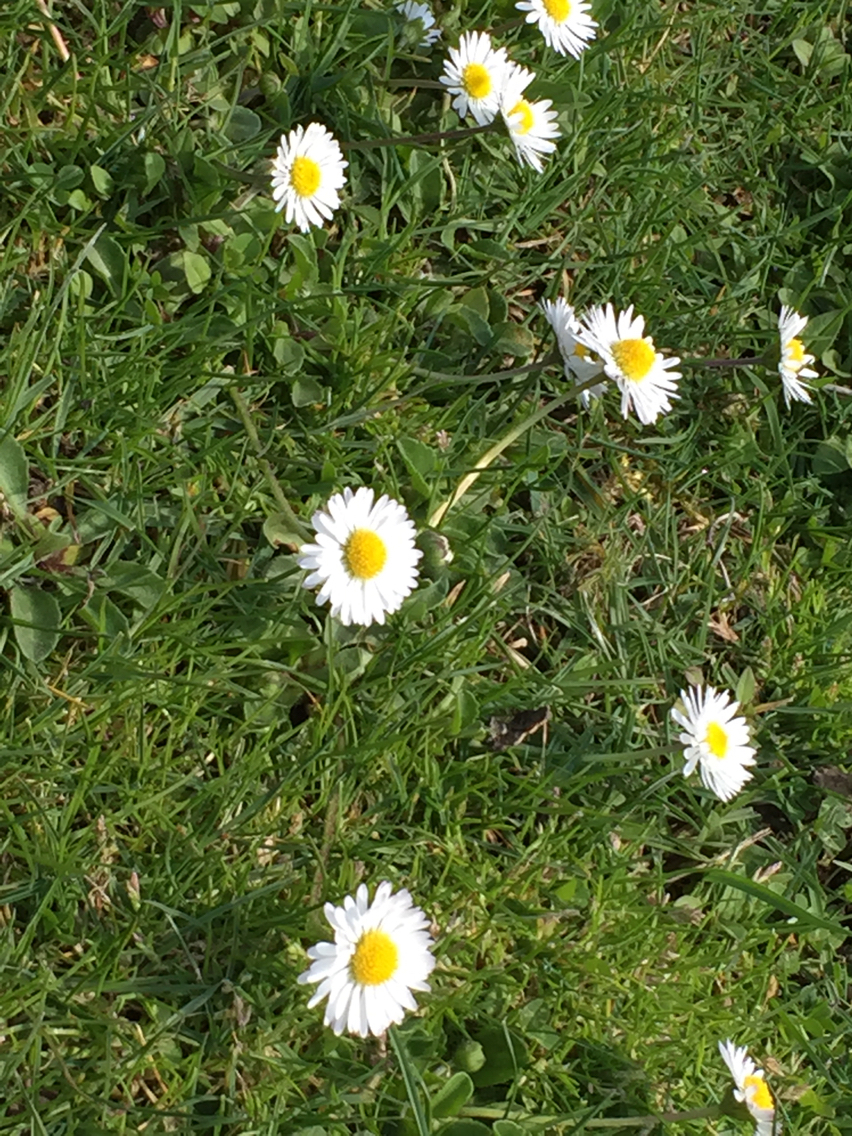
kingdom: Plantae
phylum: Tracheophyta
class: Magnoliopsida
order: Asterales
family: Asteraceae
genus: Bellis
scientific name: Bellis perennis
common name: Lawndaisy
